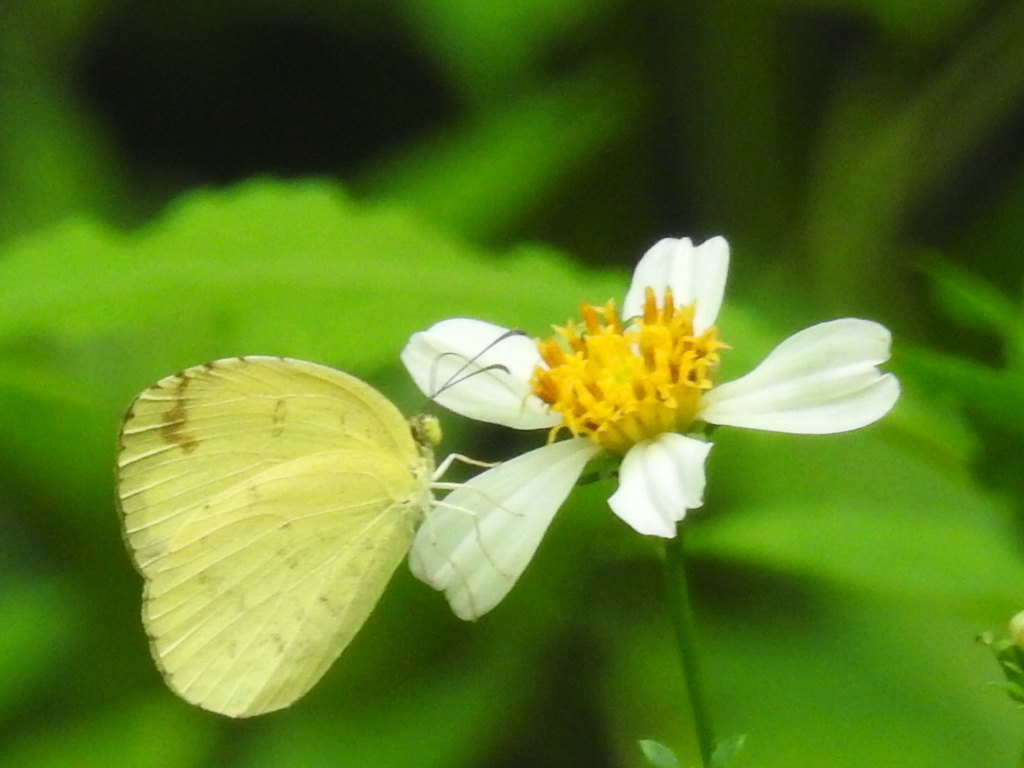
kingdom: Animalia
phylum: Arthropoda
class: Insecta
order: Lepidoptera
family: Pieridae
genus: Eurema
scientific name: Eurema blanda
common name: Three-spot grass yellow
